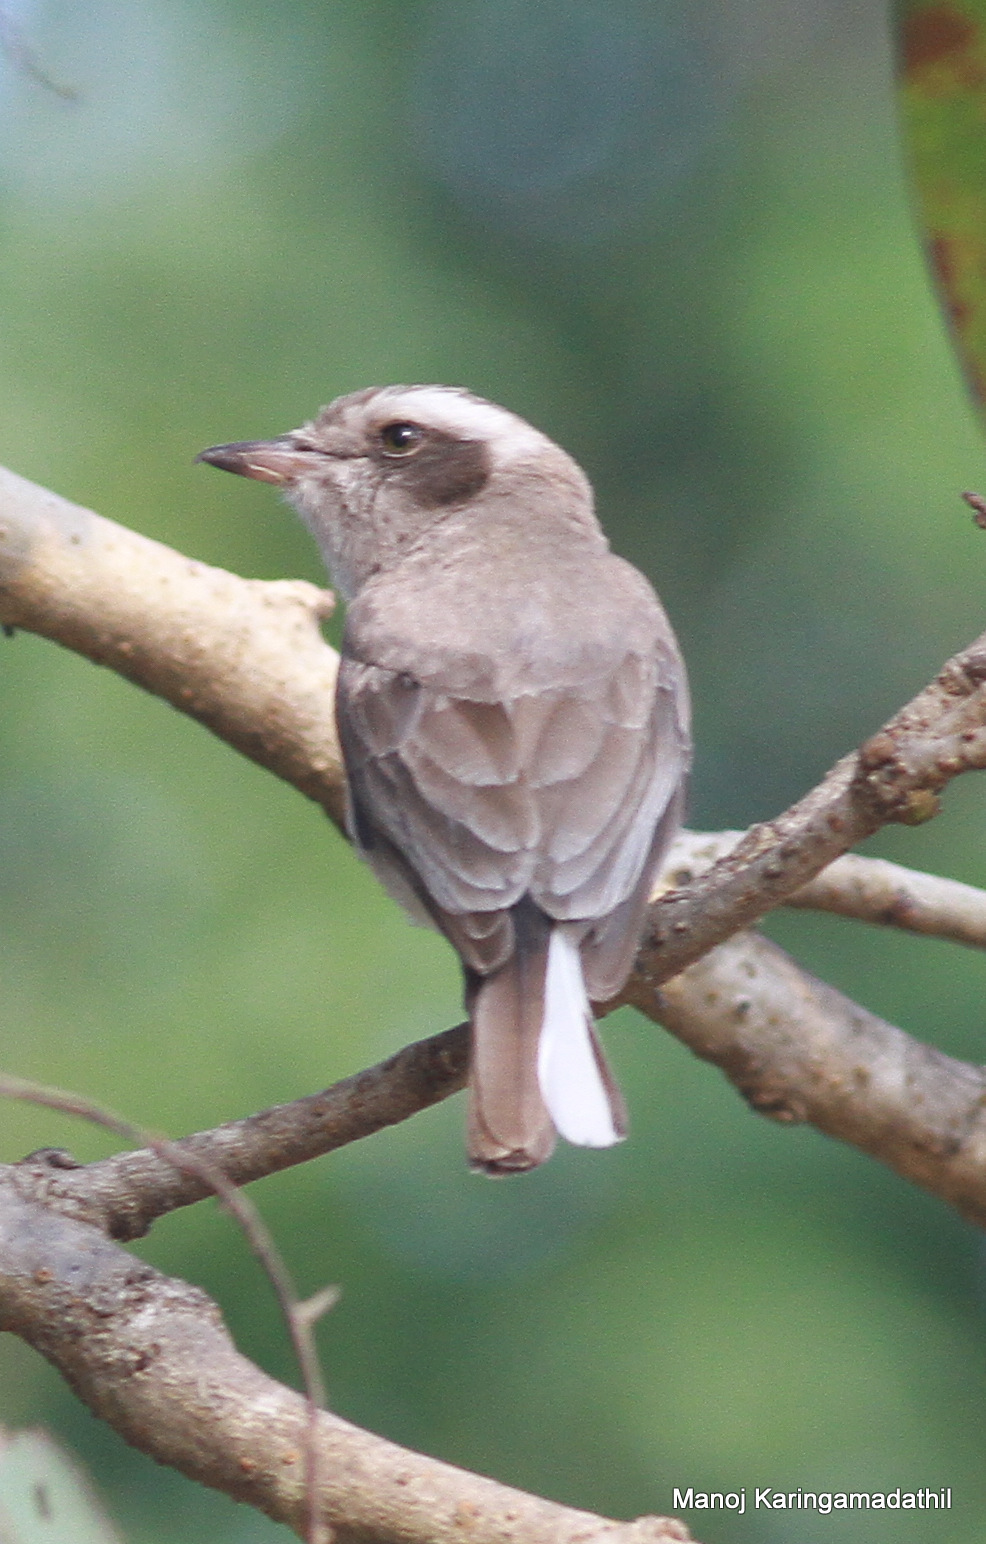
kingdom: Animalia
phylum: Chordata
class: Aves
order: Passeriformes
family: Tephrodornithidae
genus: Tephrodornis
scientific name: Tephrodornis pondicerianus
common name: Common woodshrike
